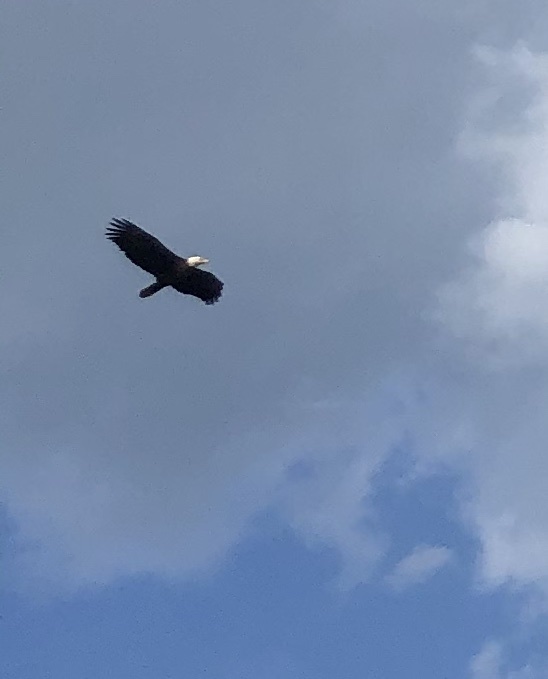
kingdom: Animalia
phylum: Chordata
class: Aves
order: Accipitriformes
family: Accipitridae
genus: Haliaeetus
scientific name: Haliaeetus leucocephalus
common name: Bald eagle
